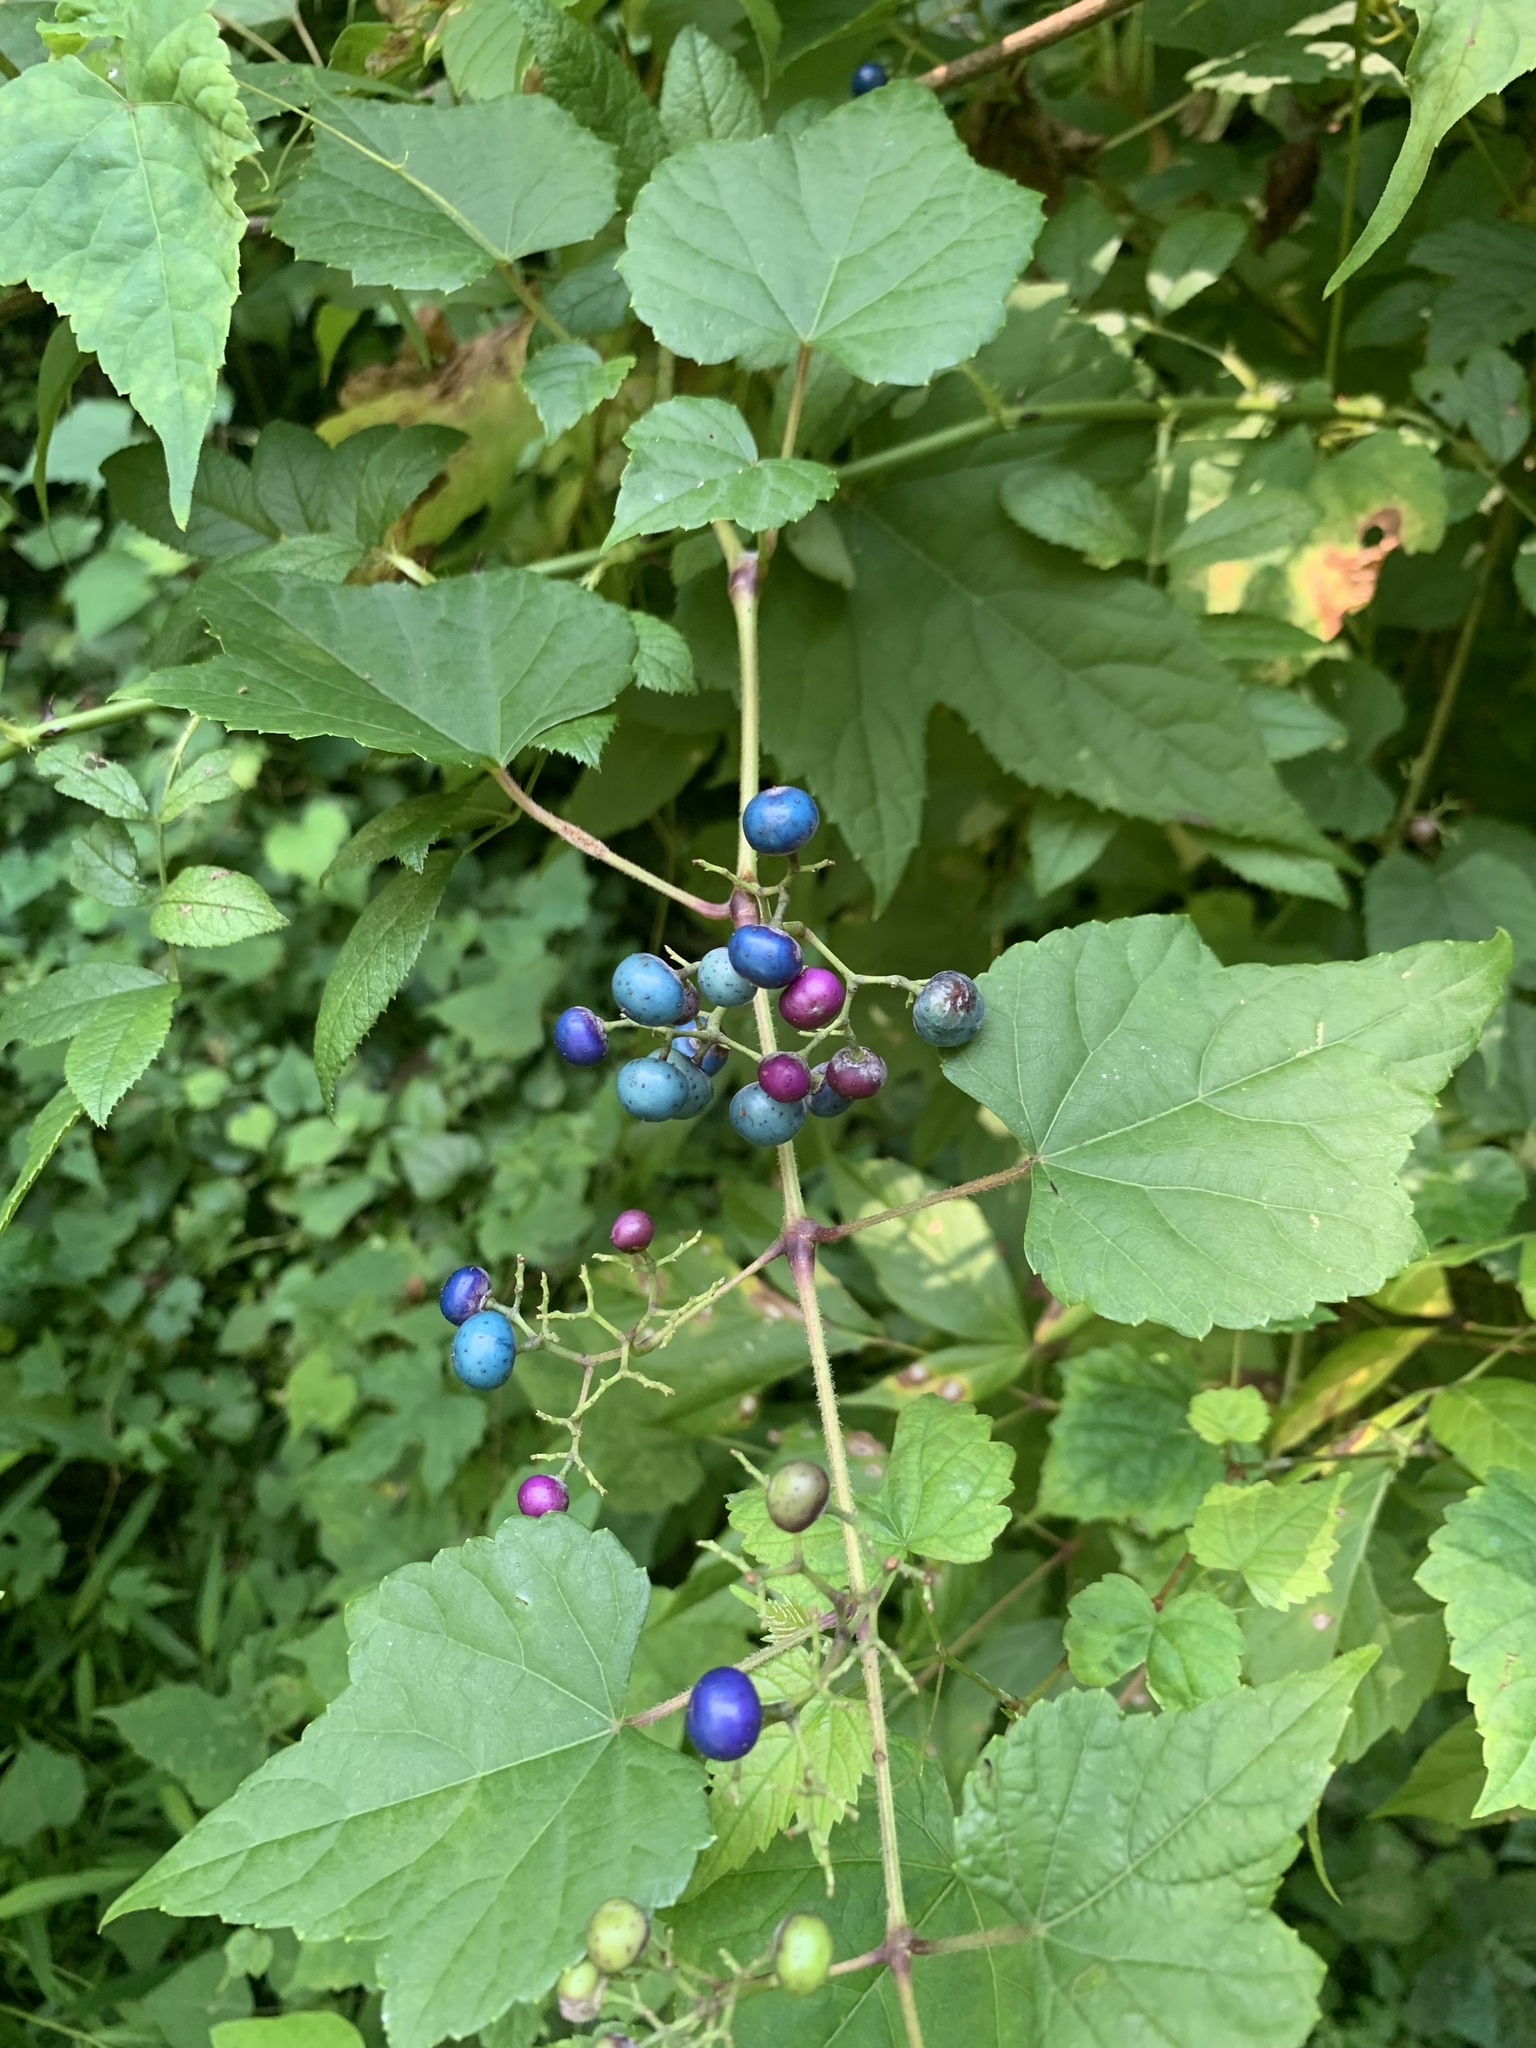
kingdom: Plantae
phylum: Tracheophyta
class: Magnoliopsida
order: Vitales
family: Vitaceae
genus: Ampelopsis
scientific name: Ampelopsis glandulosa
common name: Amur peppervine
